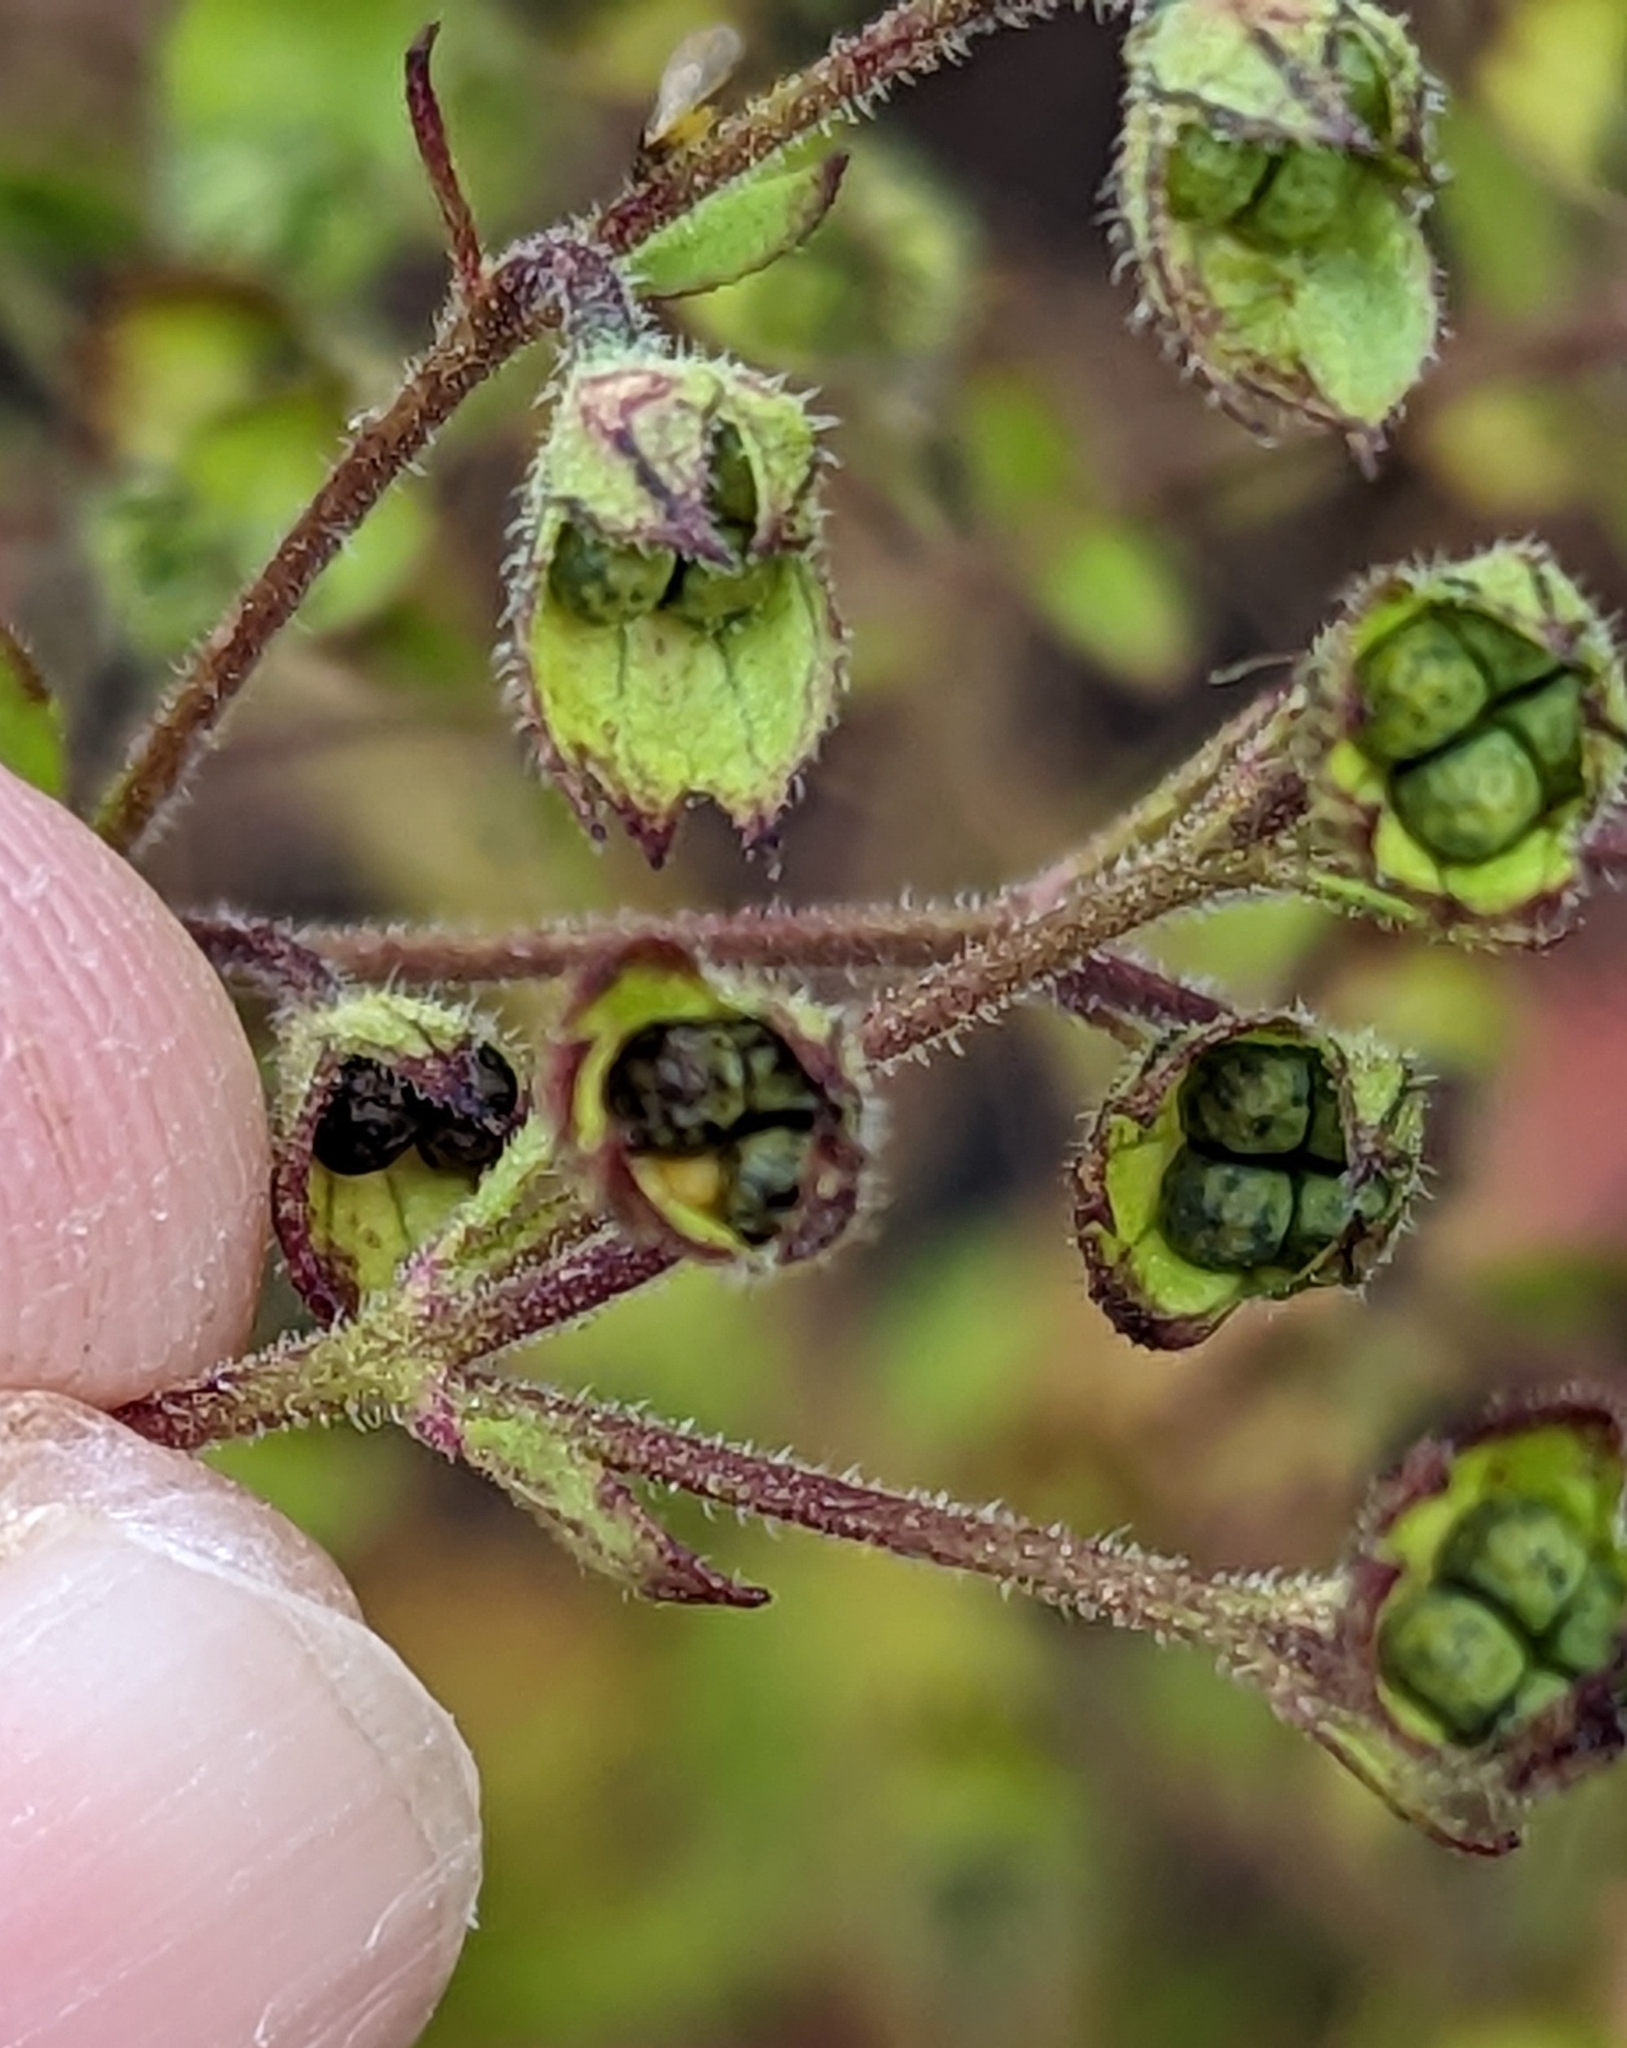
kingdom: Plantae
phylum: Tracheophyta
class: Magnoliopsida
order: Lamiales
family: Lamiaceae
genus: Trichostema
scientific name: Trichostema dichotomum
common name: Bastard pennyroyal
